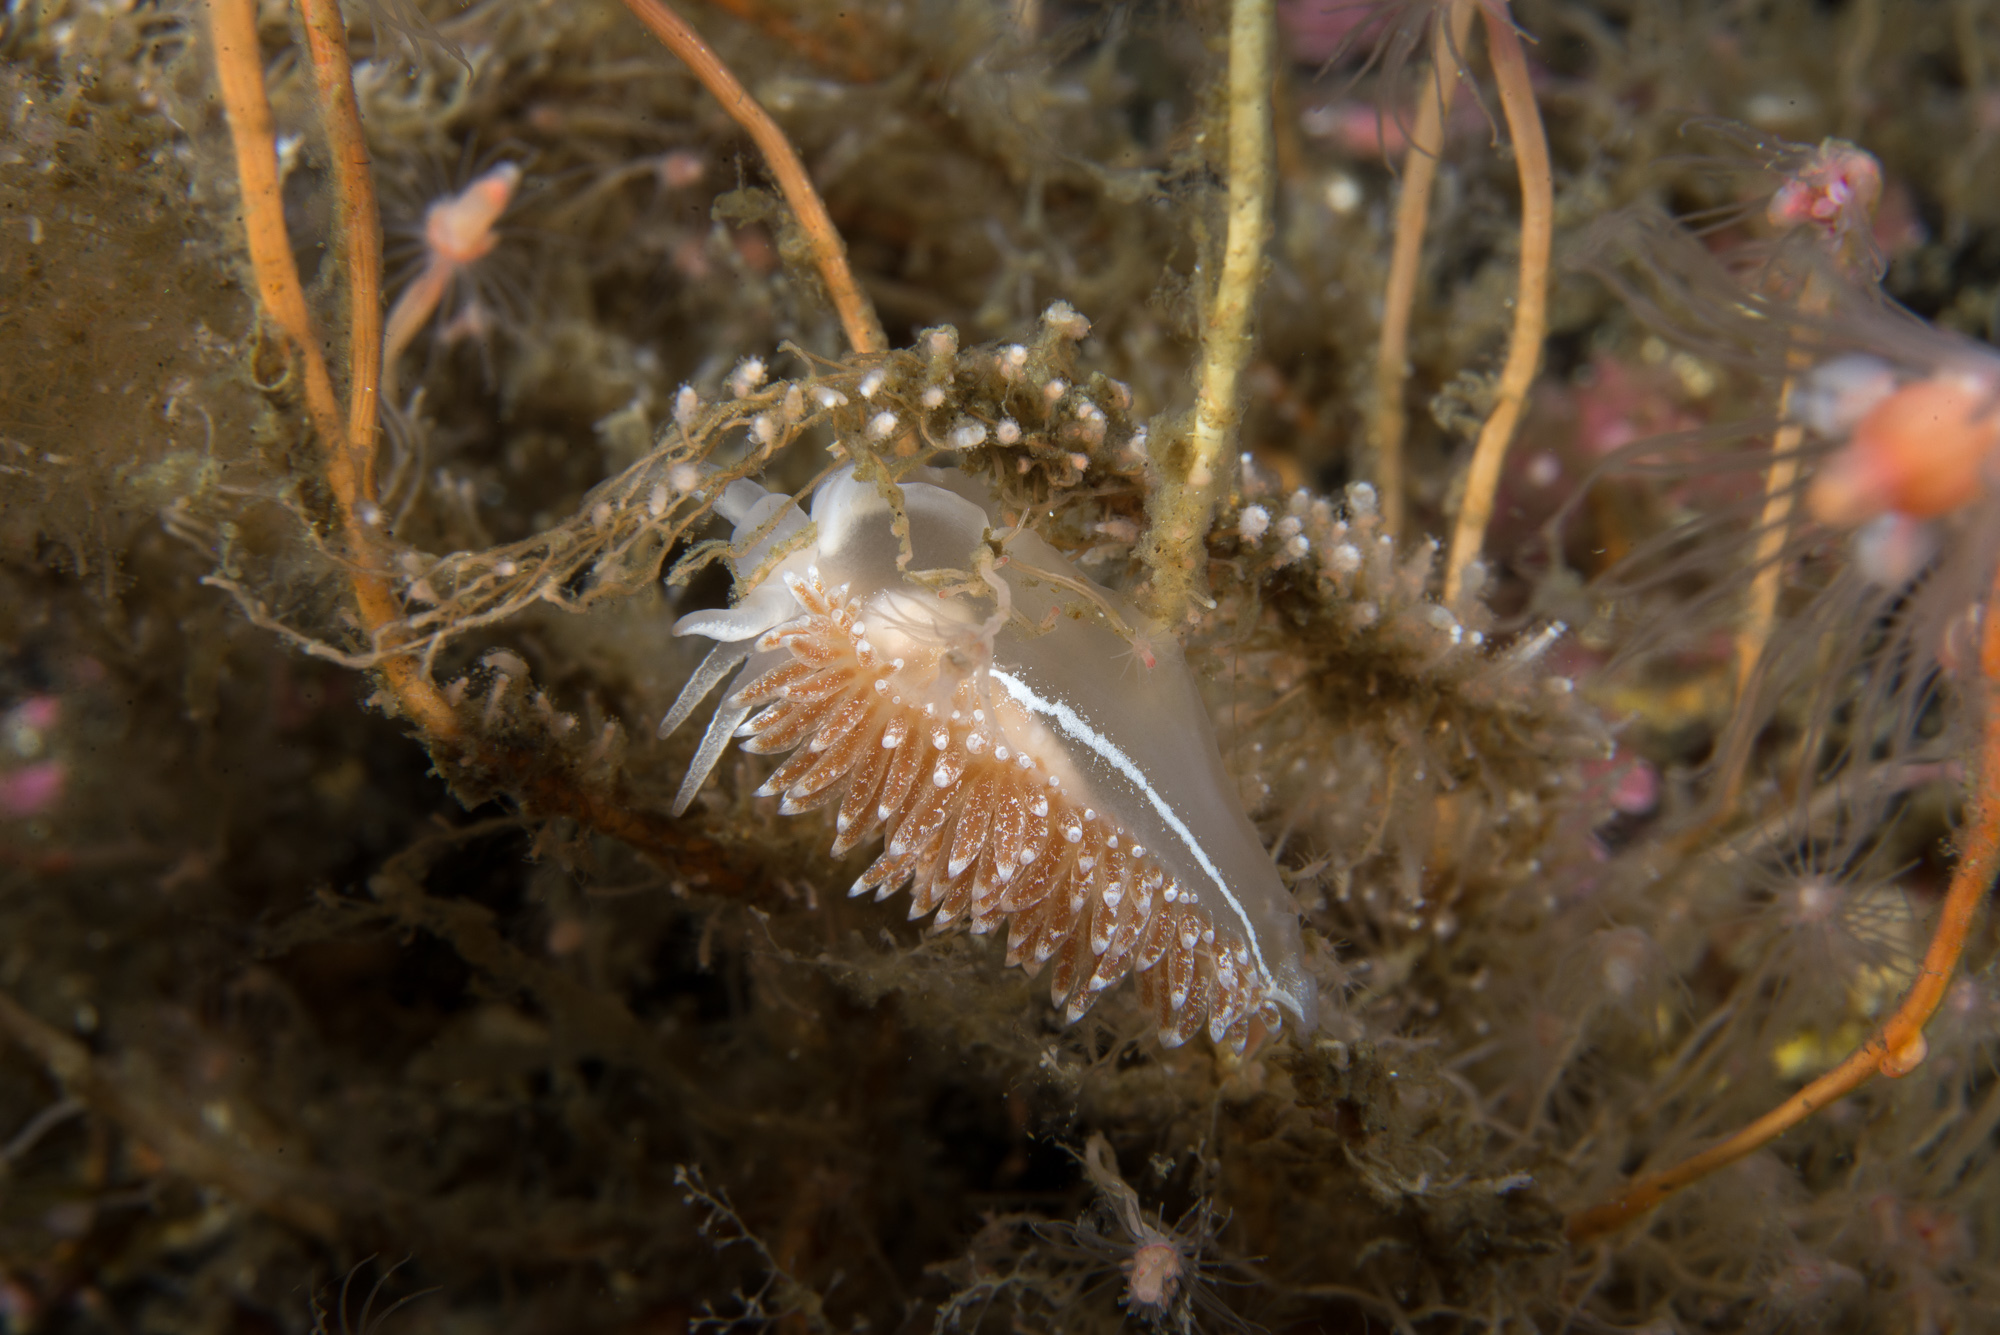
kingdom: Animalia
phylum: Mollusca
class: Gastropoda
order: Nudibranchia
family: Coryphellidae
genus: Coryphella
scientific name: Coryphella orjani
